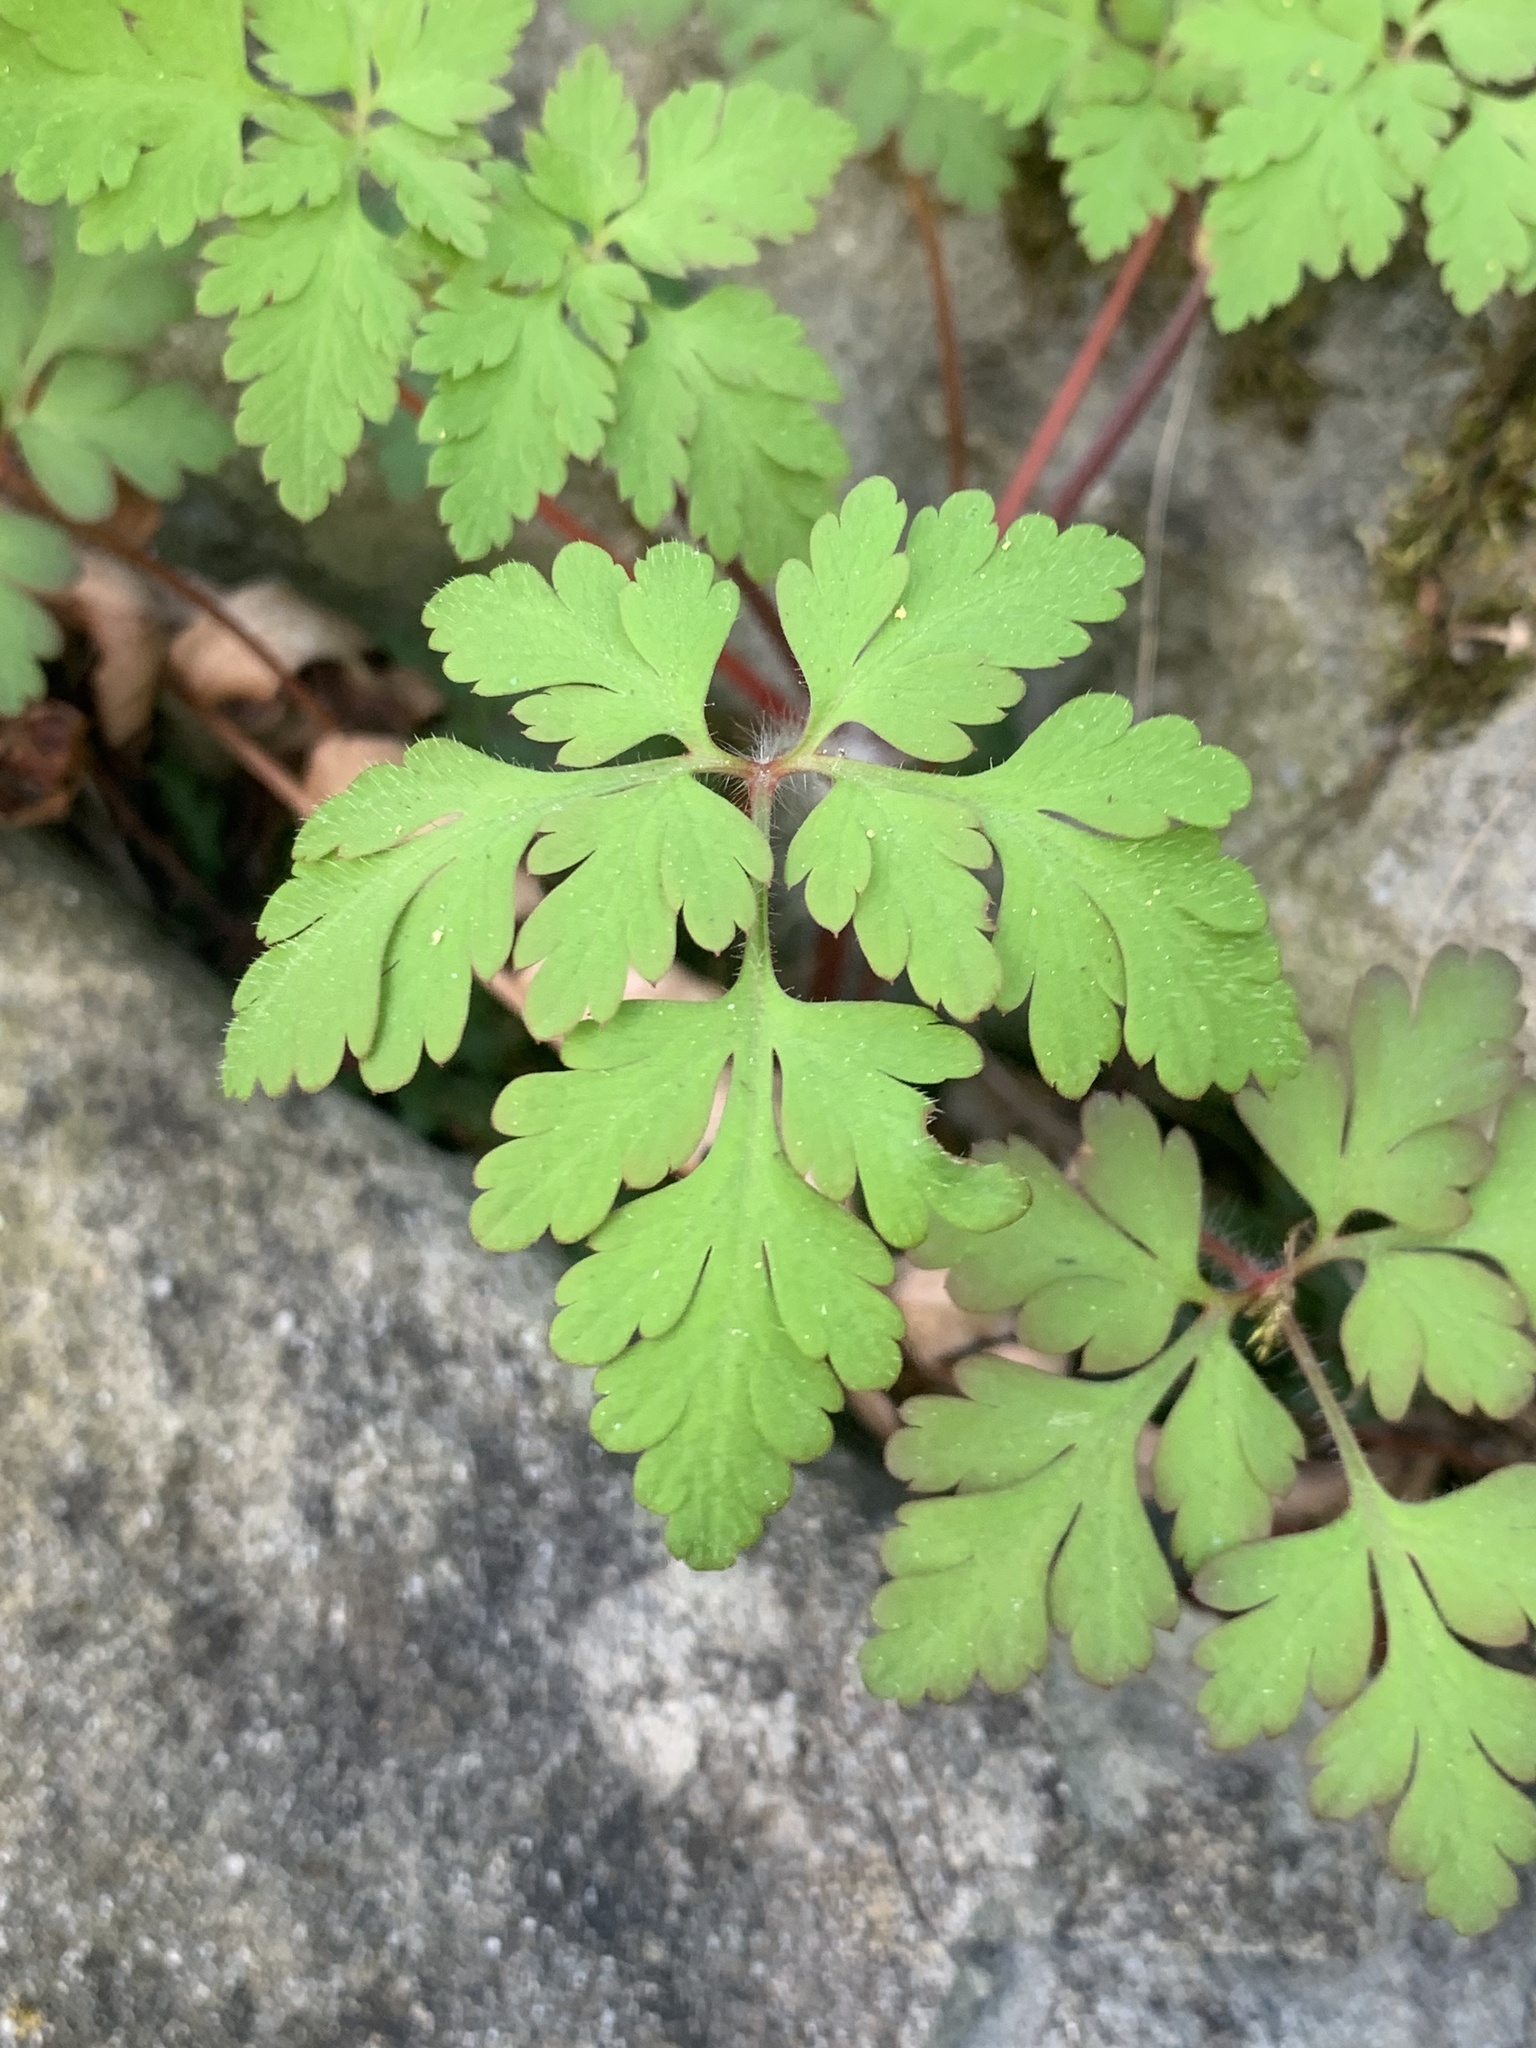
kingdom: Plantae
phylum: Tracheophyta
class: Magnoliopsida
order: Geraniales
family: Geraniaceae
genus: Geranium
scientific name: Geranium robertianum
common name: Herb-robert
